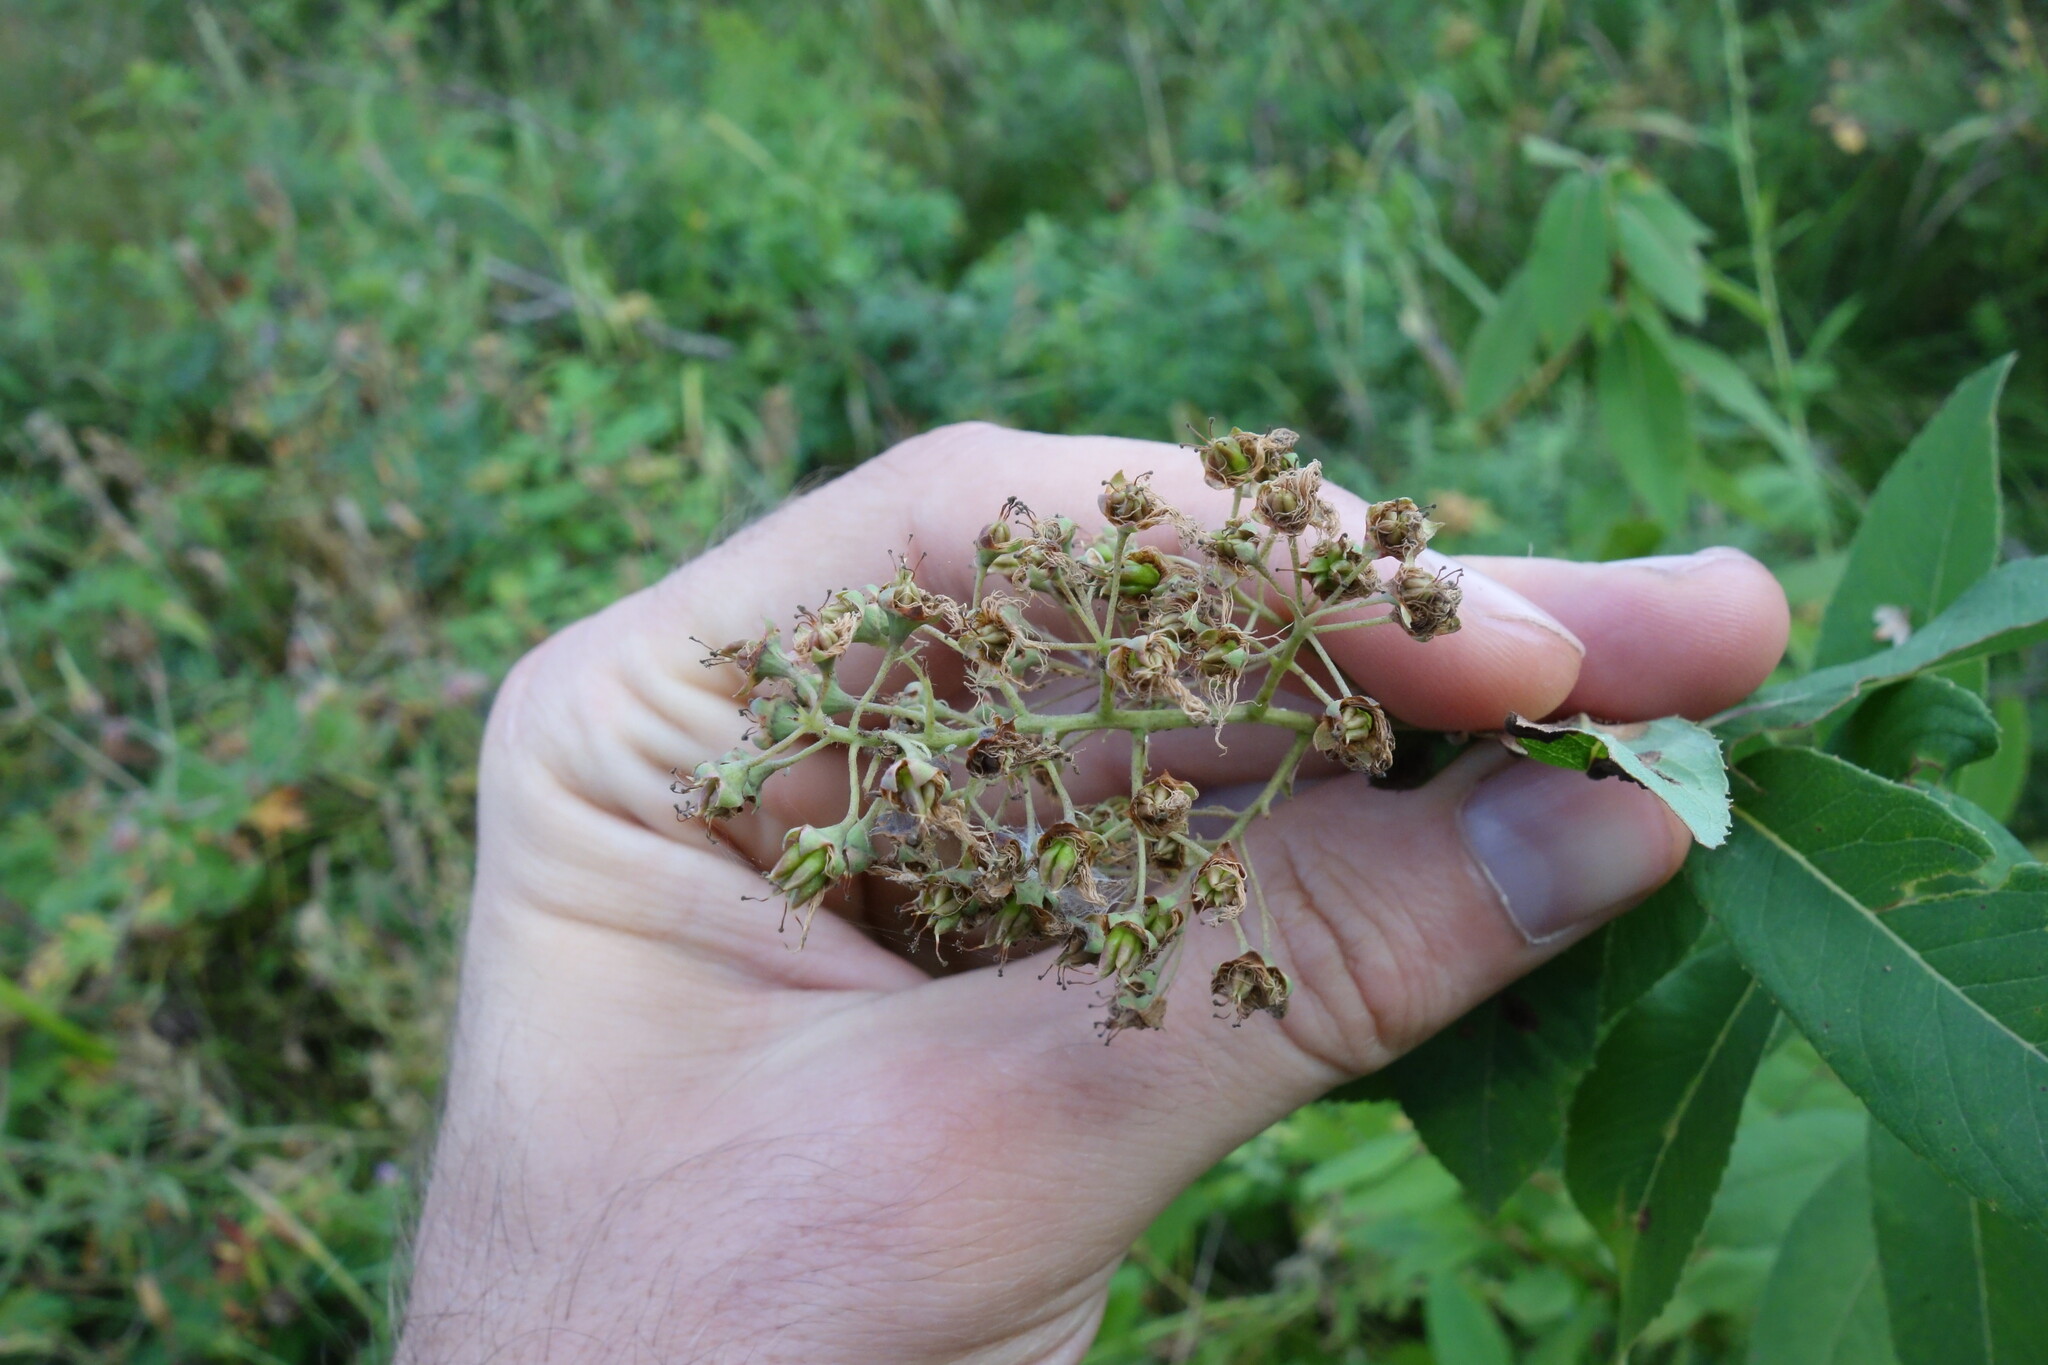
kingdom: Plantae
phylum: Tracheophyta
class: Magnoliopsida
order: Rosales
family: Rosaceae
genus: Filipendula
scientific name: Filipendula digitata
